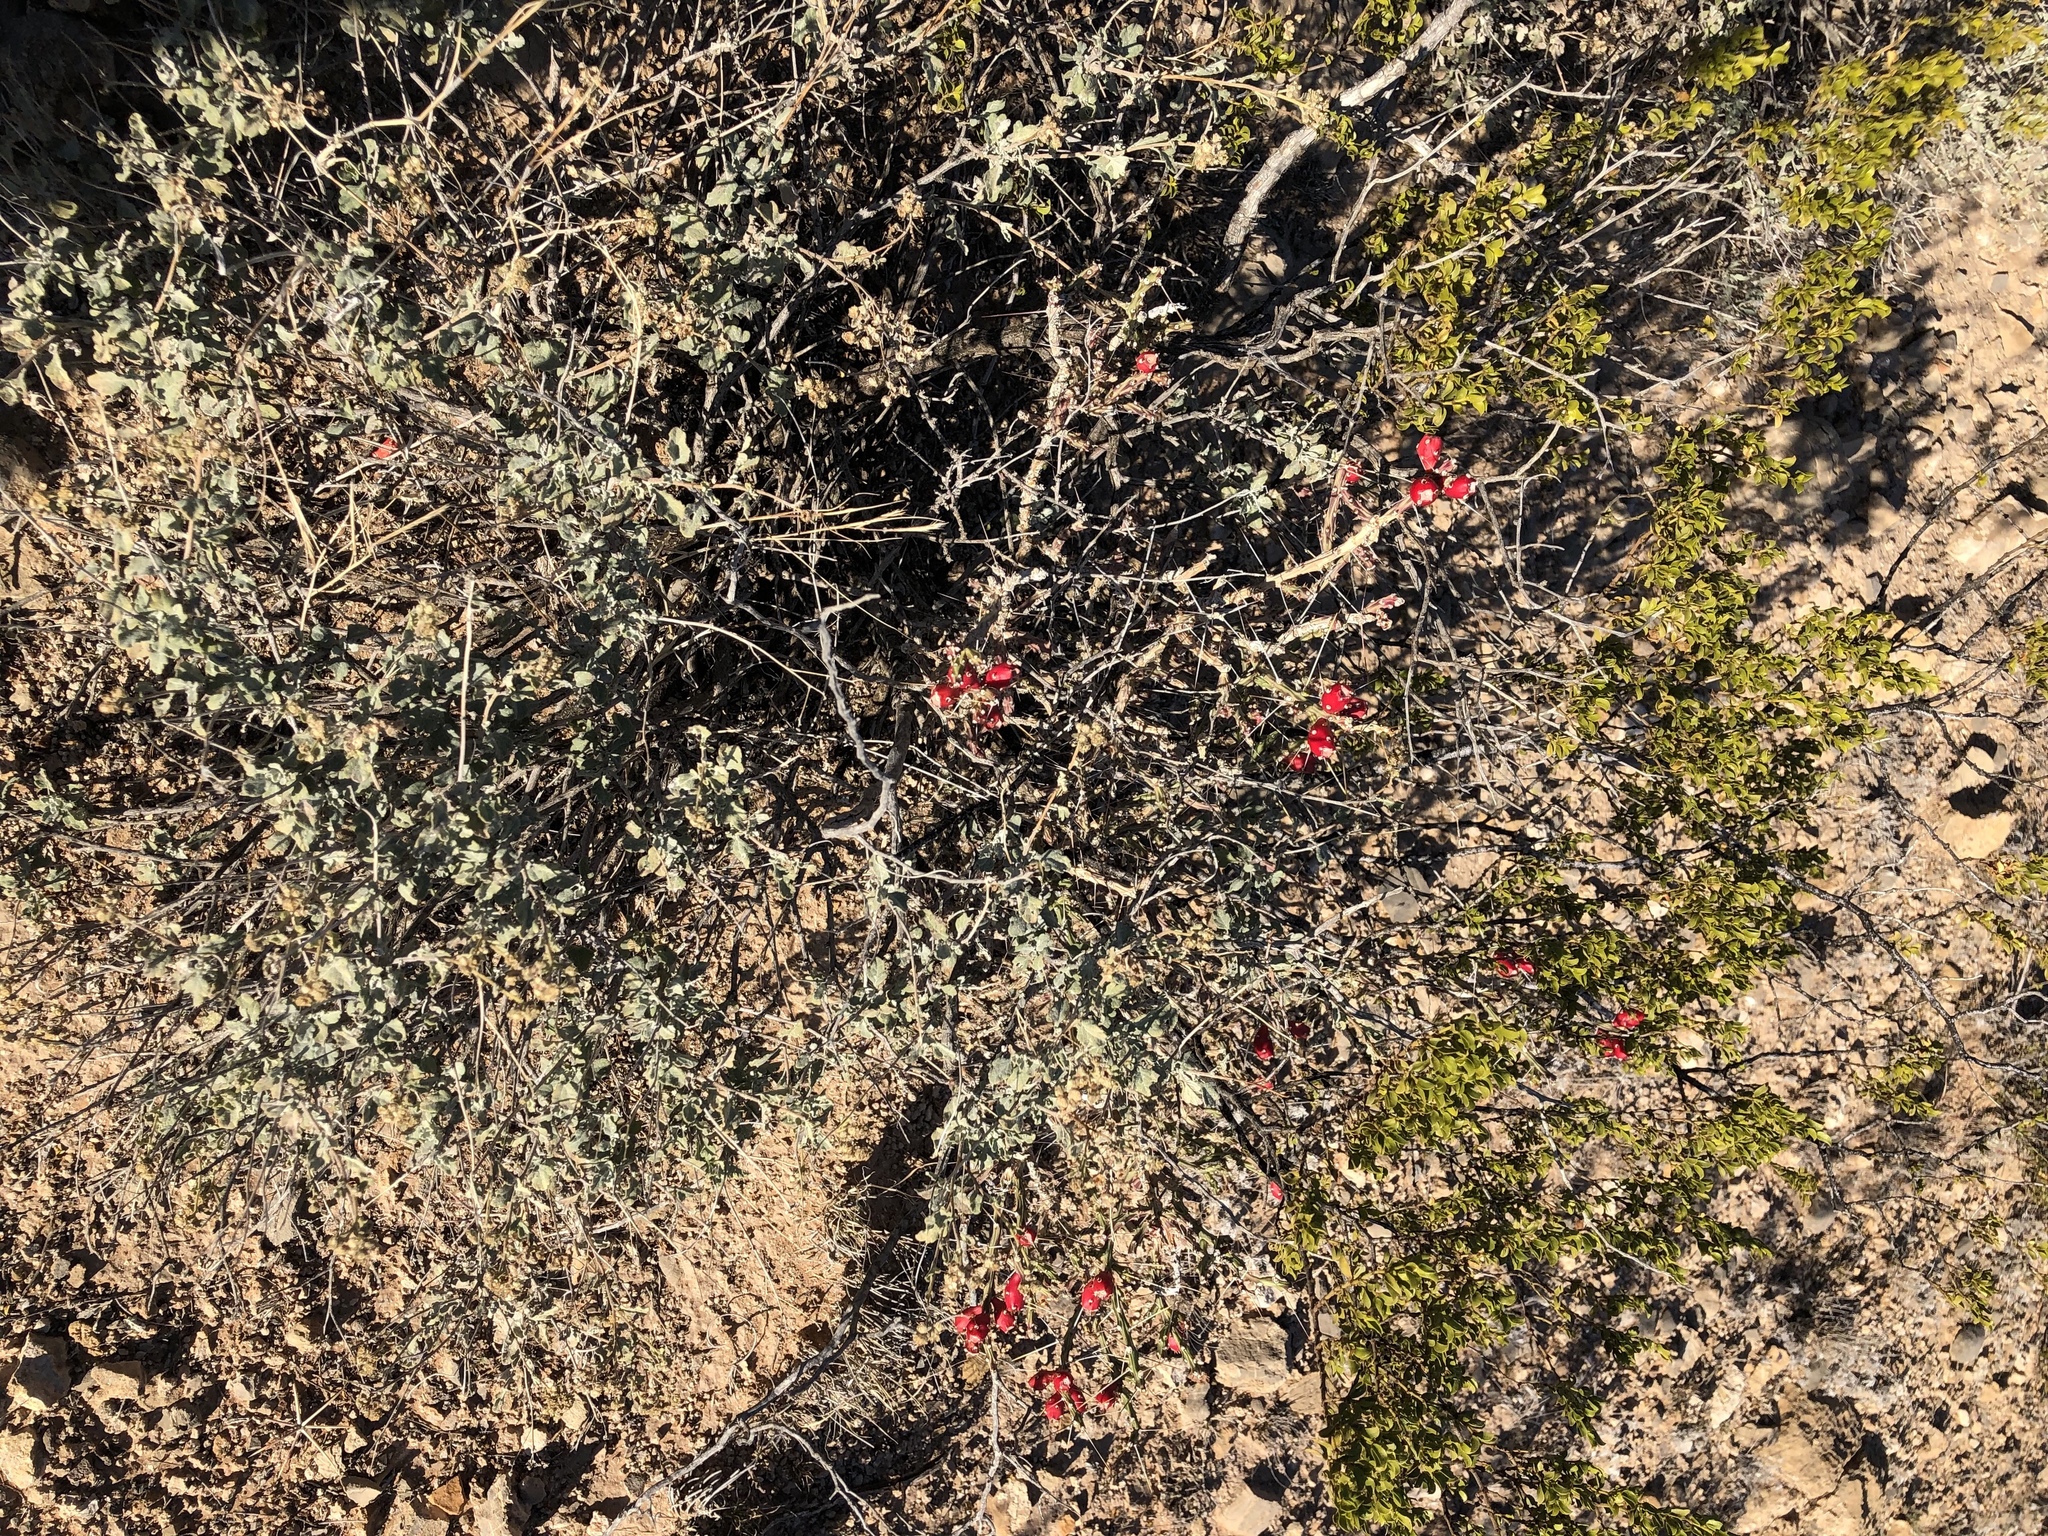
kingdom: Plantae
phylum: Tracheophyta
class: Magnoliopsida
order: Caryophyllales
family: Cactaceae
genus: Cylindropuntia
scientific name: Cylindropuntia leptocaulis
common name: Christmas cactus
